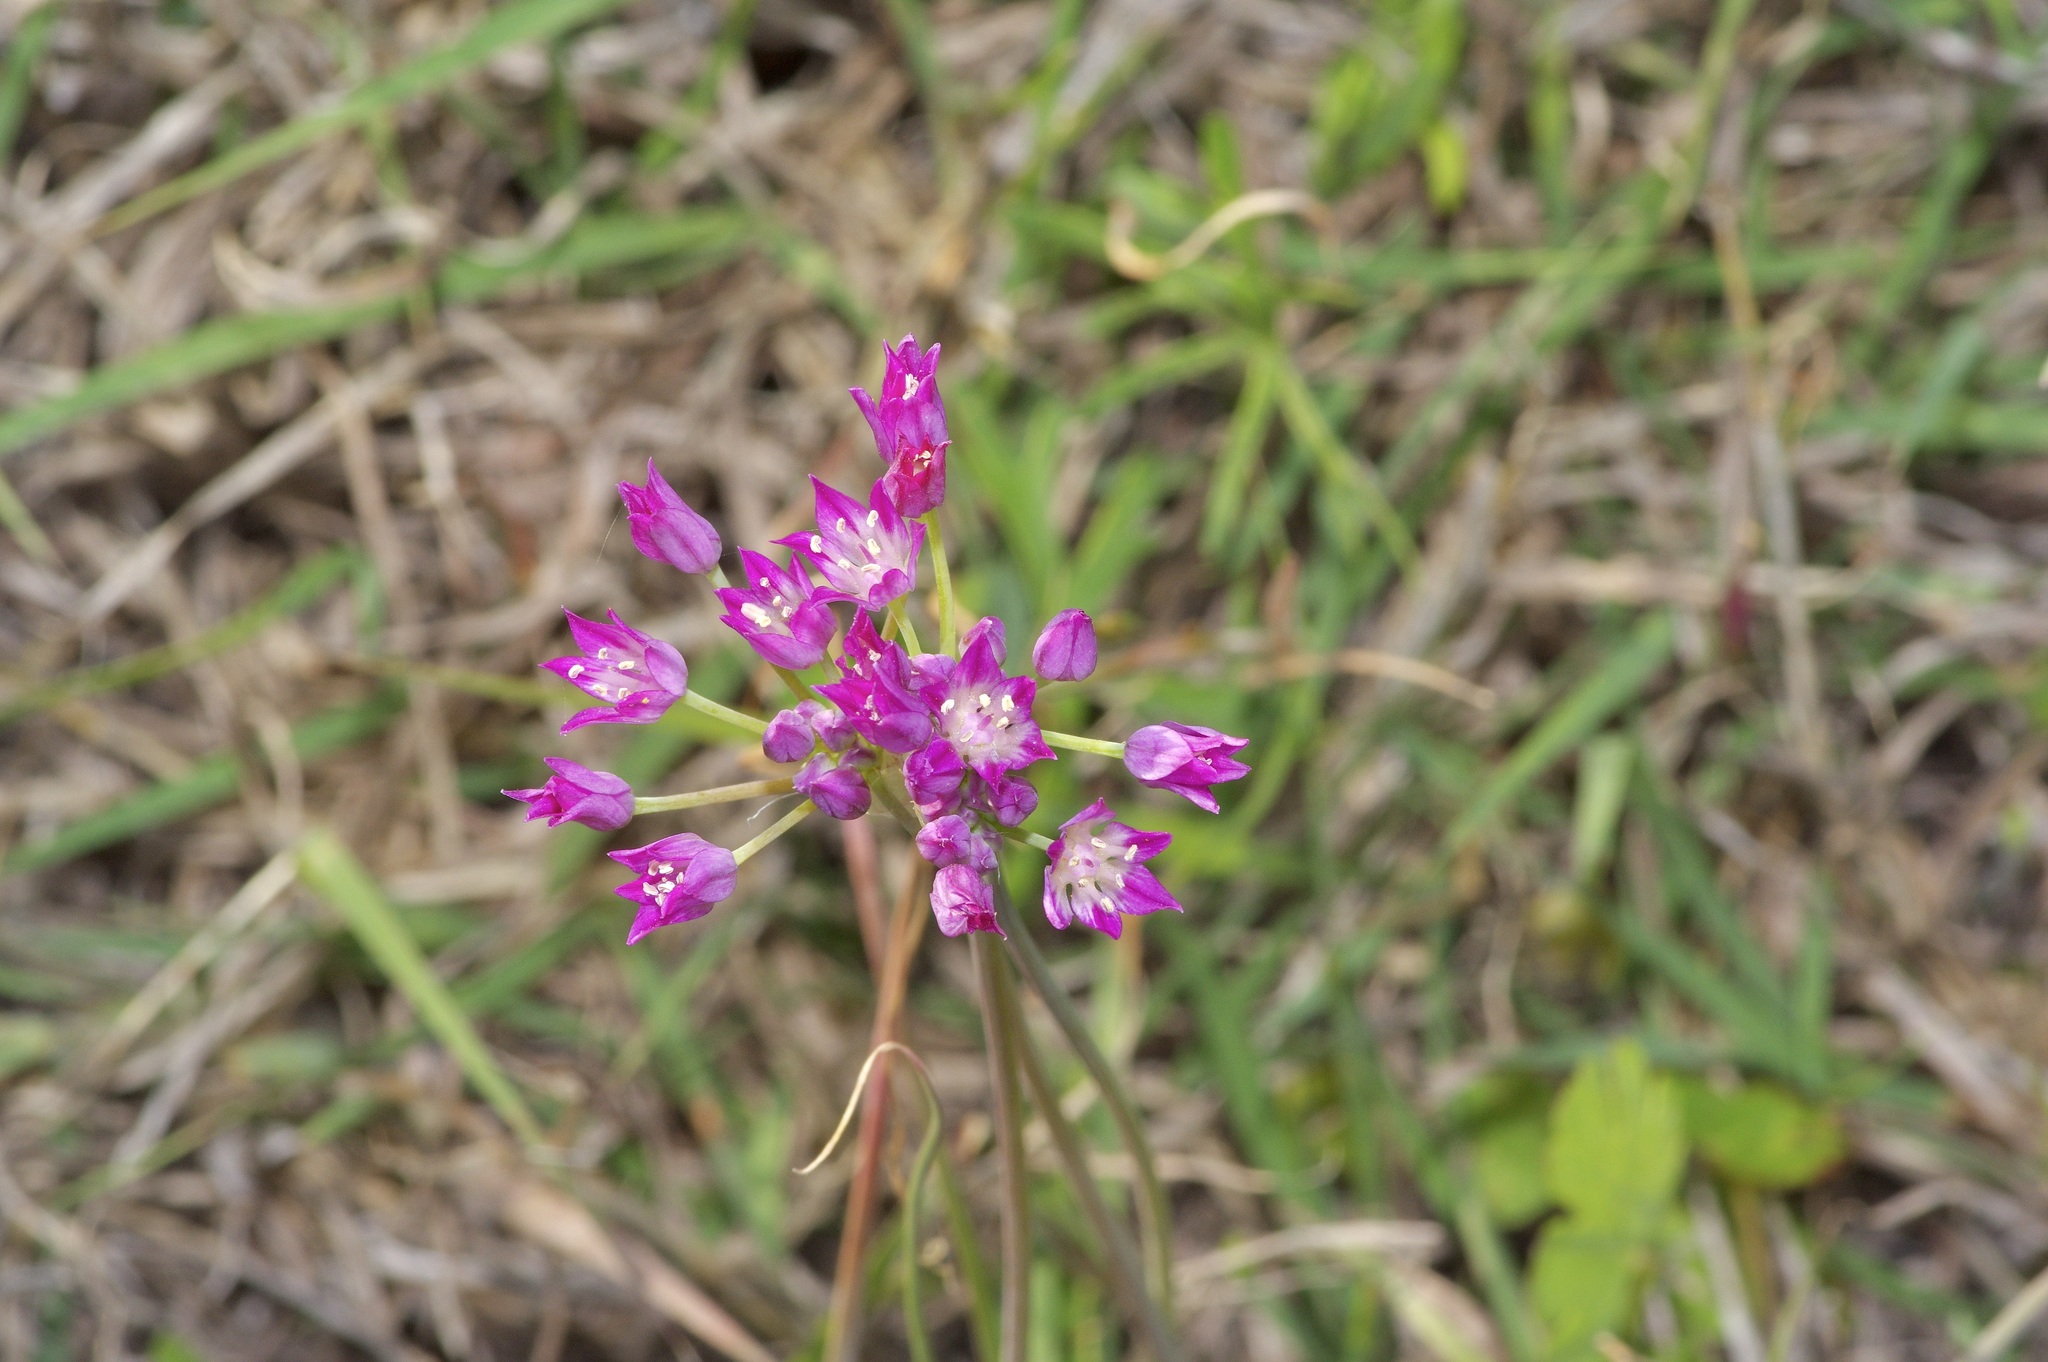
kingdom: Plantae
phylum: Tracheophyta
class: Liliopsida
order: Asparagales
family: Amaryllidaceae
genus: Allium
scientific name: Allium drummondii
